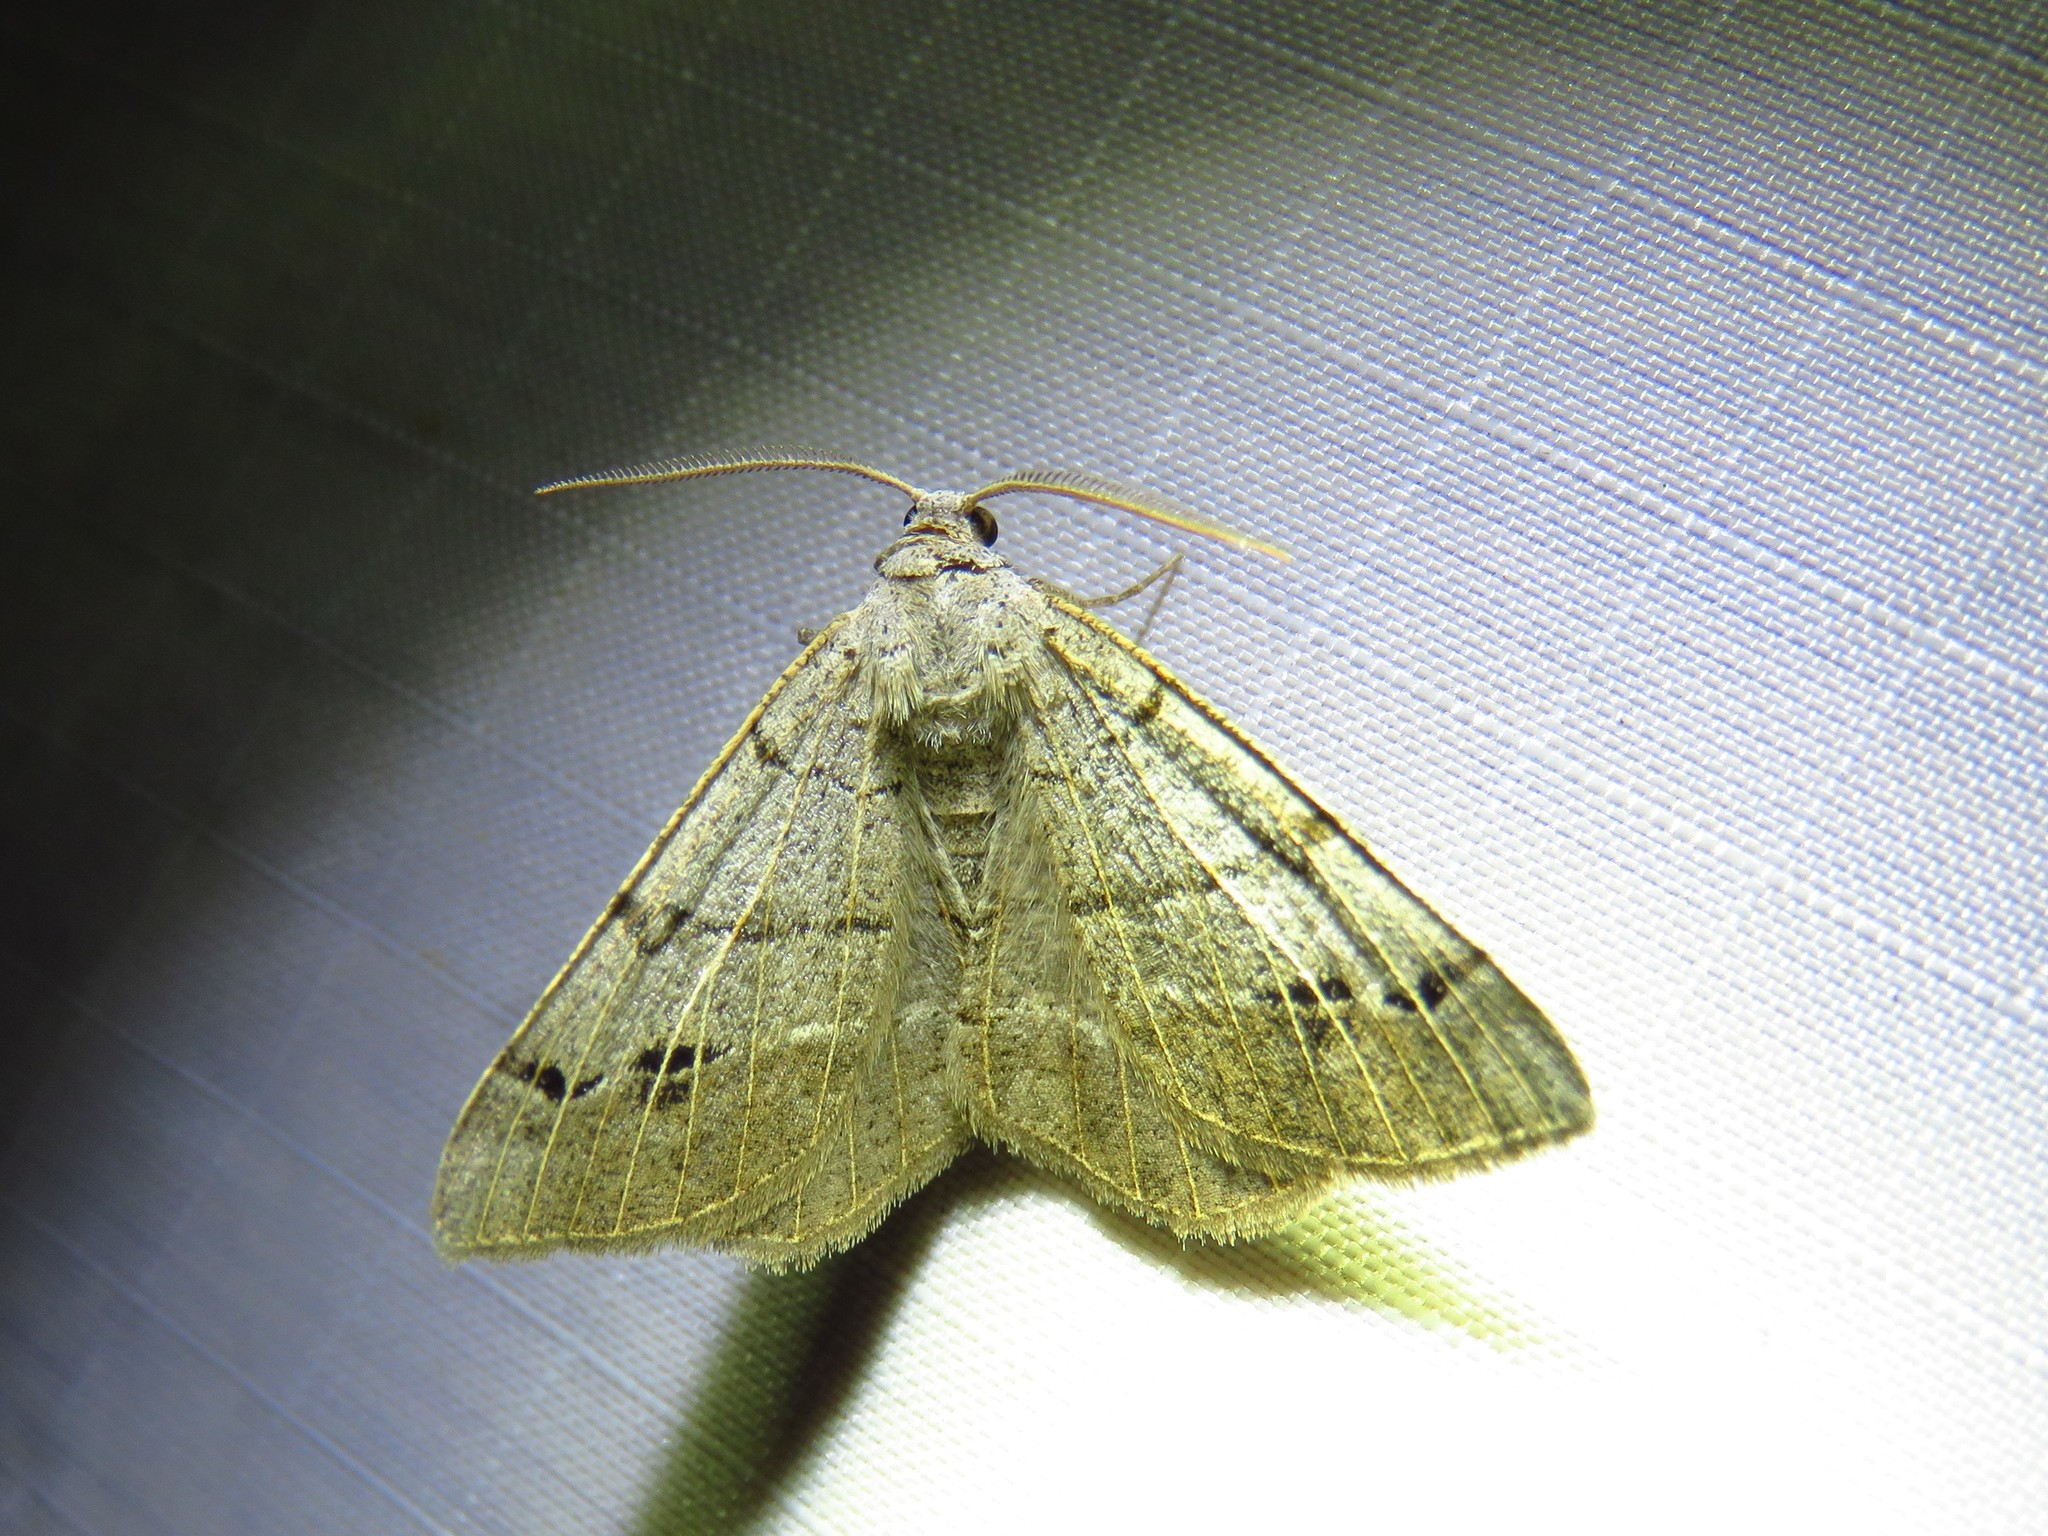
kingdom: Animalia
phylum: Arthropoda
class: Insecta
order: Lepidoptera
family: Geometridae
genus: Isturgia
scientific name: Isturgia dislocaria
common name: Pale-viened enconista
